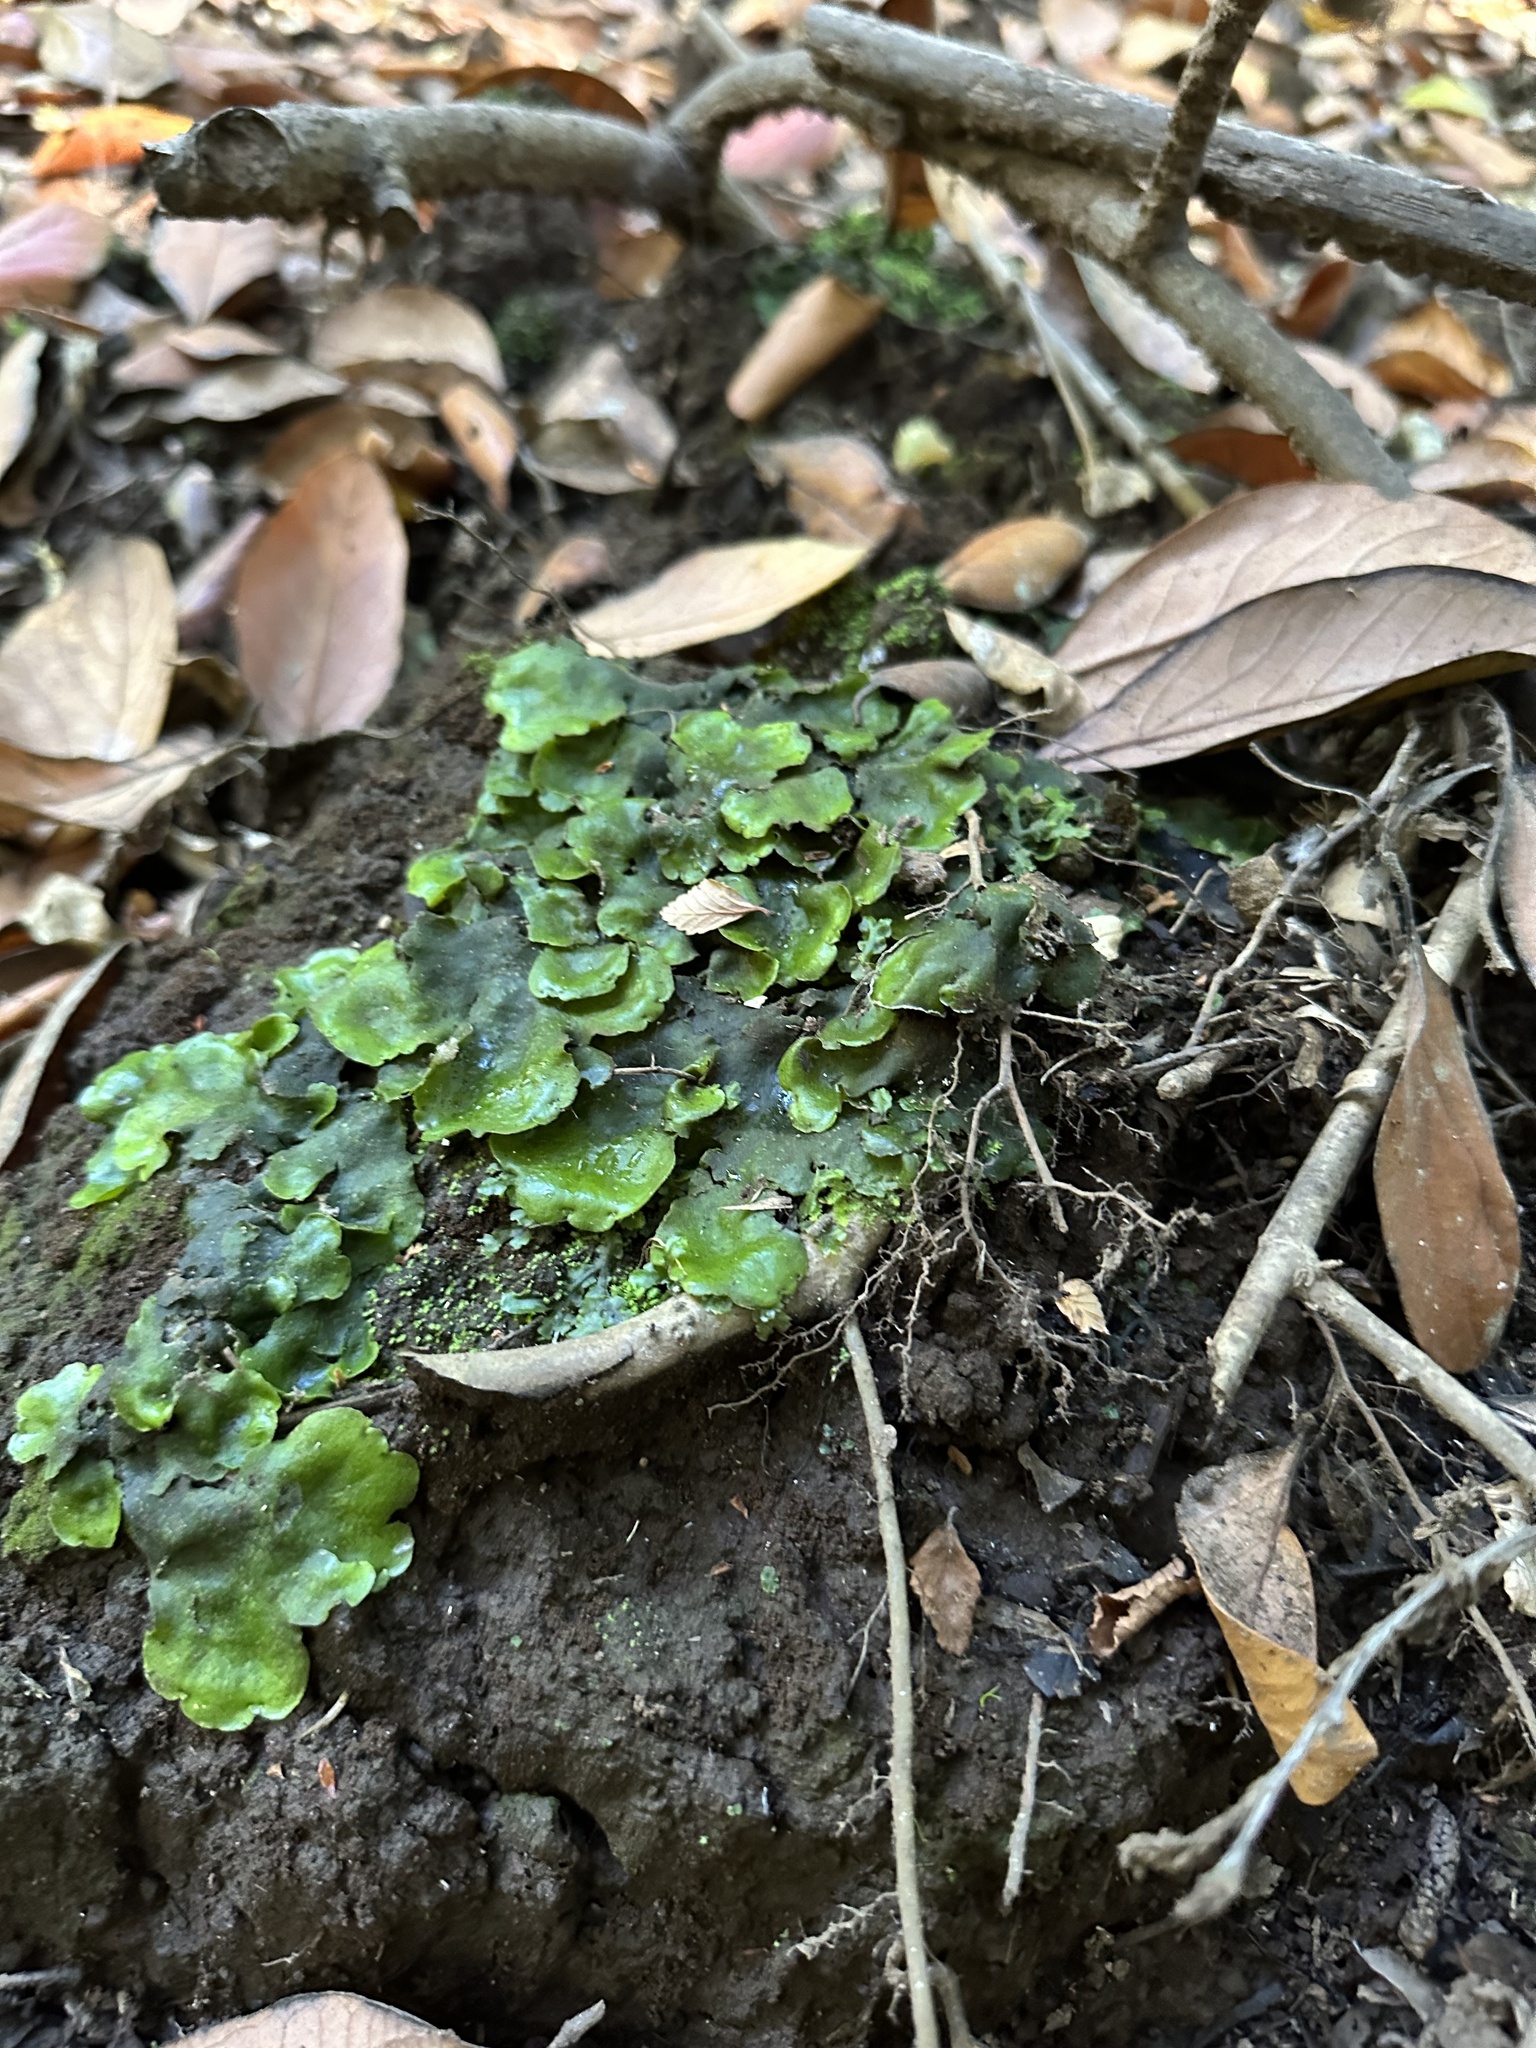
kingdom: Plantae
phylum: Marchantiophyta
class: Marchantiopsida
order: Marchantiales
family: Monocleaceae
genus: Monoclea
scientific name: Monoclea gottschei
